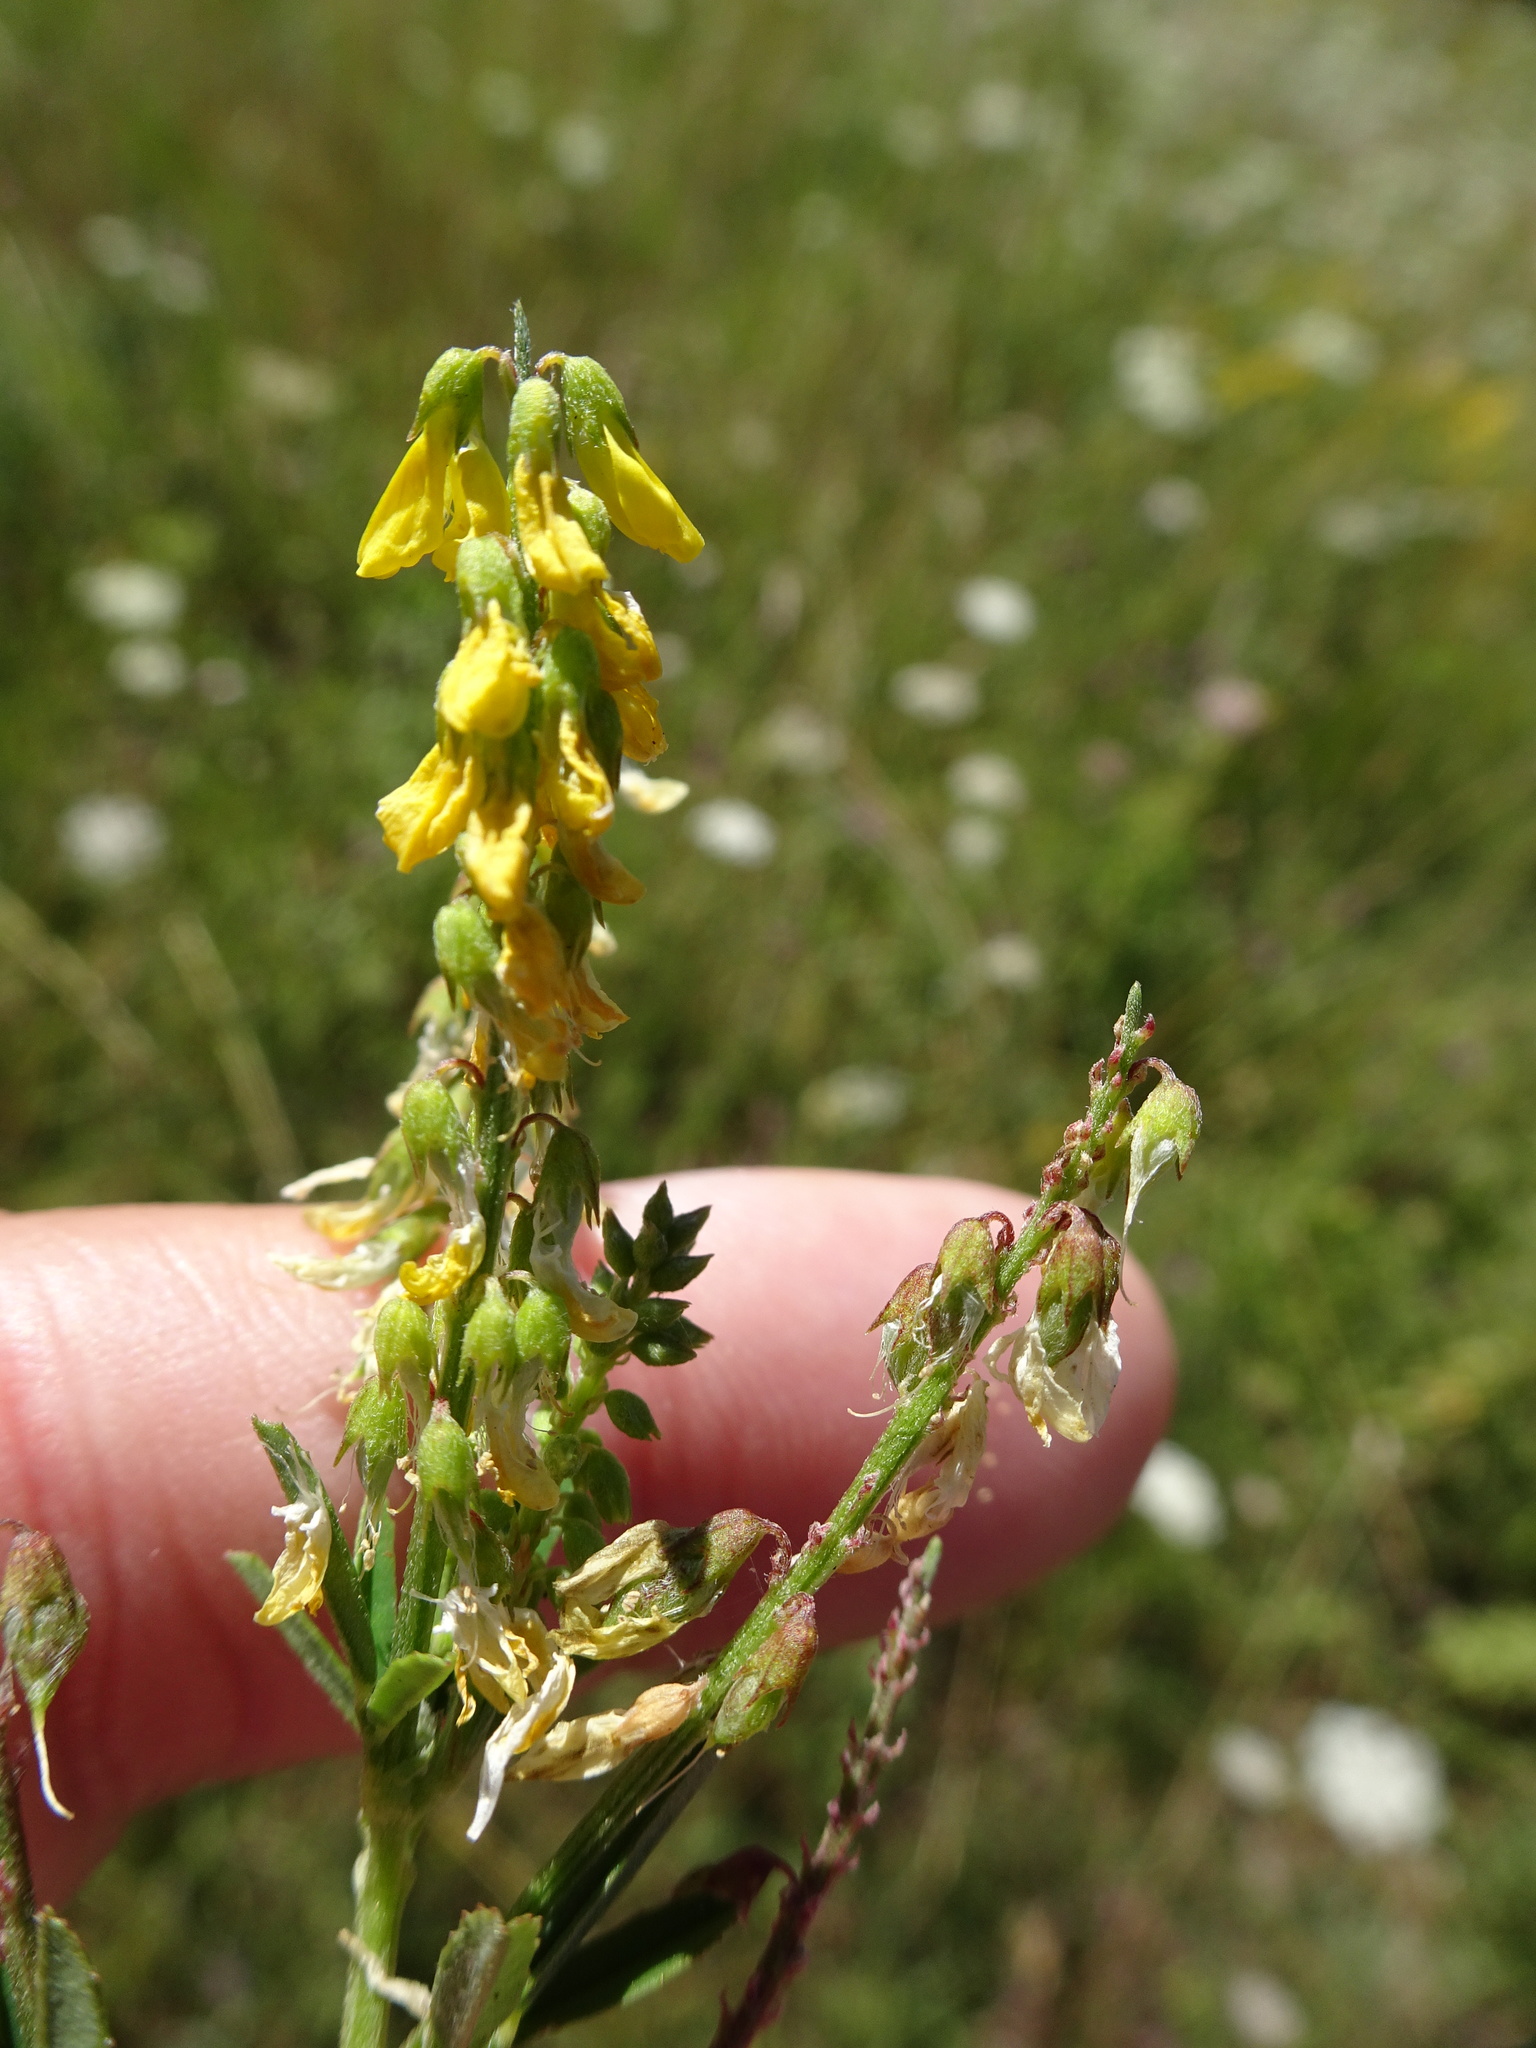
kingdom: Plantae
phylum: Tracheophyta
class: Magnoliopsida
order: Fabales
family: Fabaceae
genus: Melilotus
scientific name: Melilotus officinalis
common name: Sweetclover
